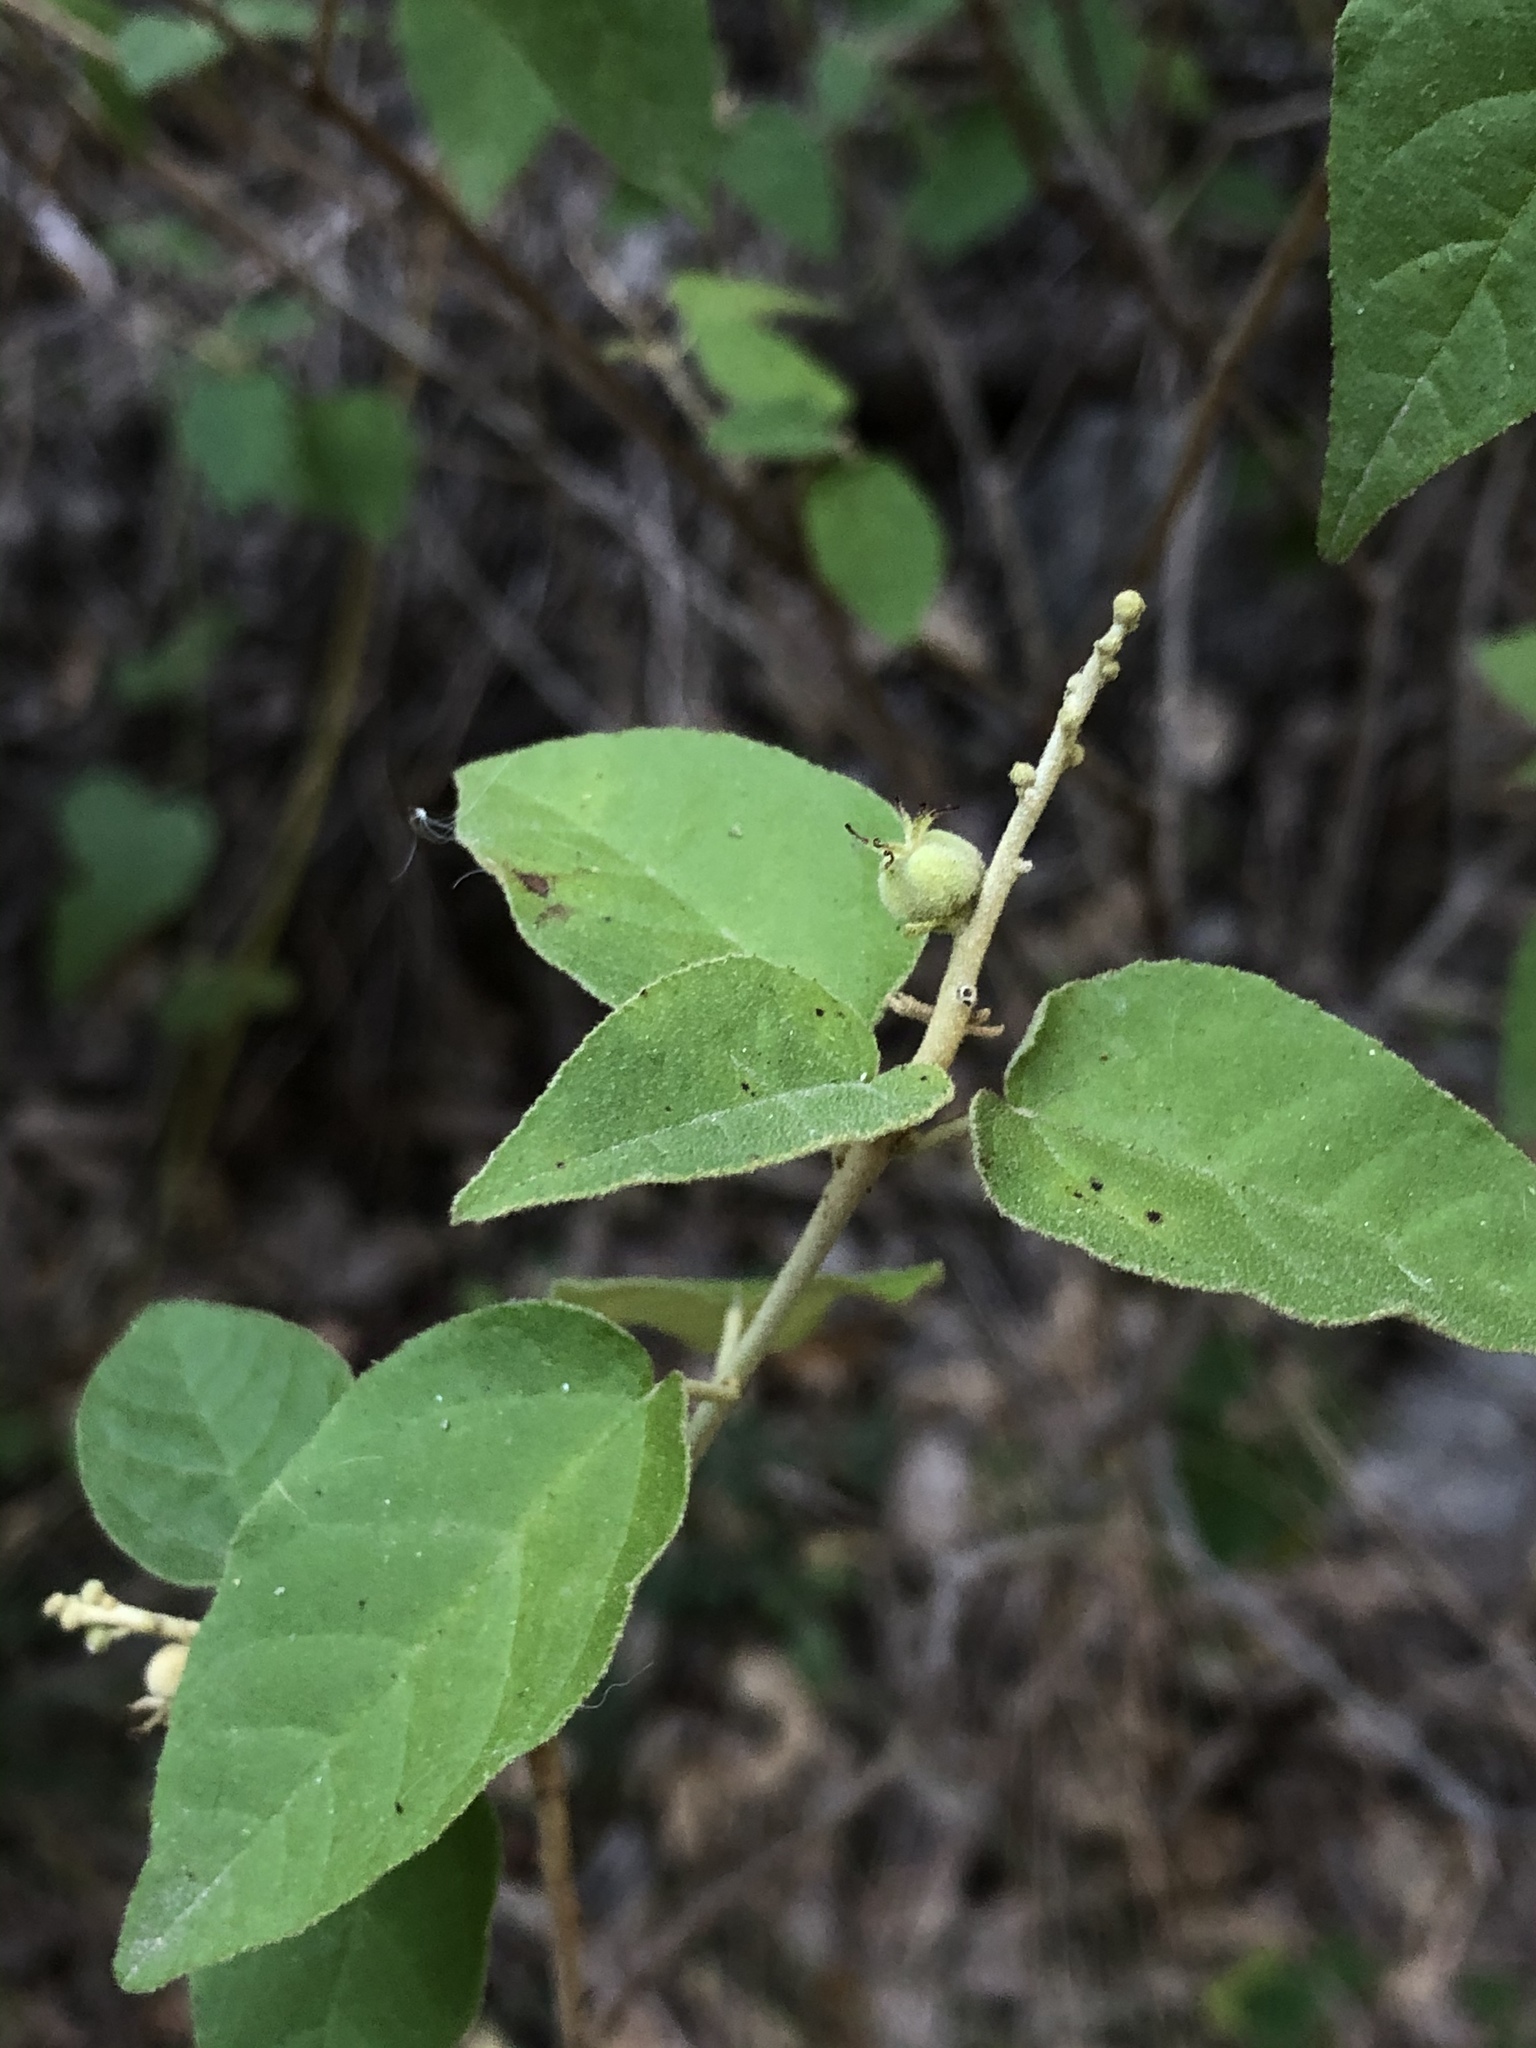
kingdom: Plantae
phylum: Tracheophyta
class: Magnoliopsida
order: Malpighiales
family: Euphorbiaceae
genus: Croton
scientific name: Croton fruticulosus
